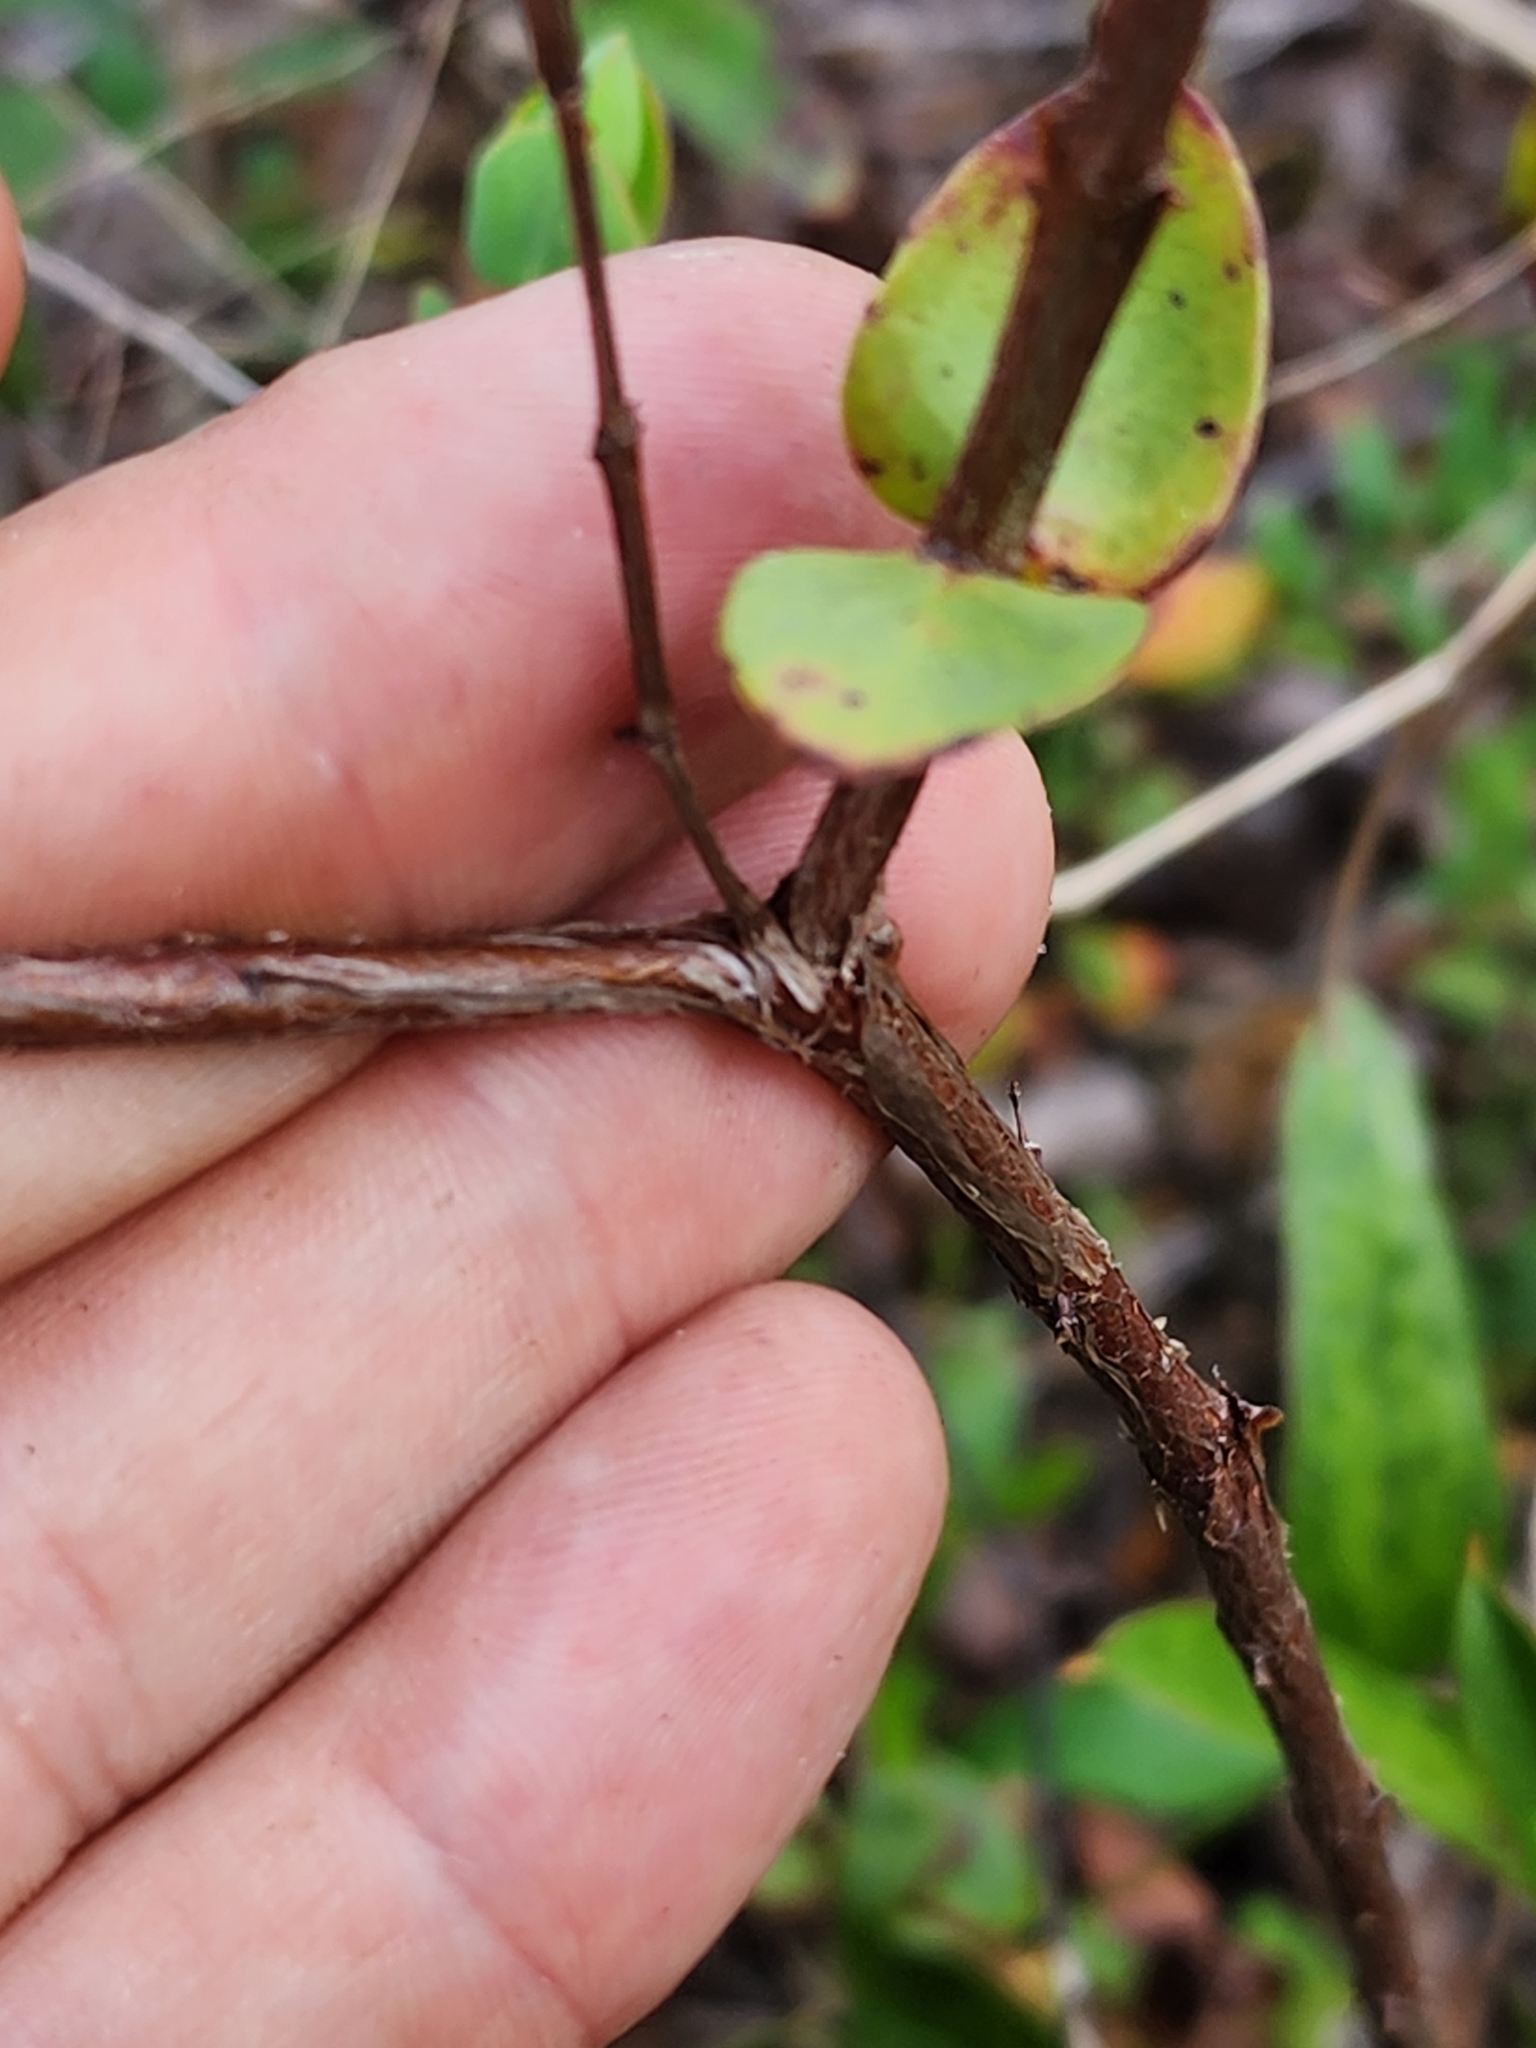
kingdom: Plantae
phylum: Tracheophyta
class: Magnoliopsida
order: Malpighiales
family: Hypericaceae
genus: Hypericum
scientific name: Hypericum tetrapetalum
